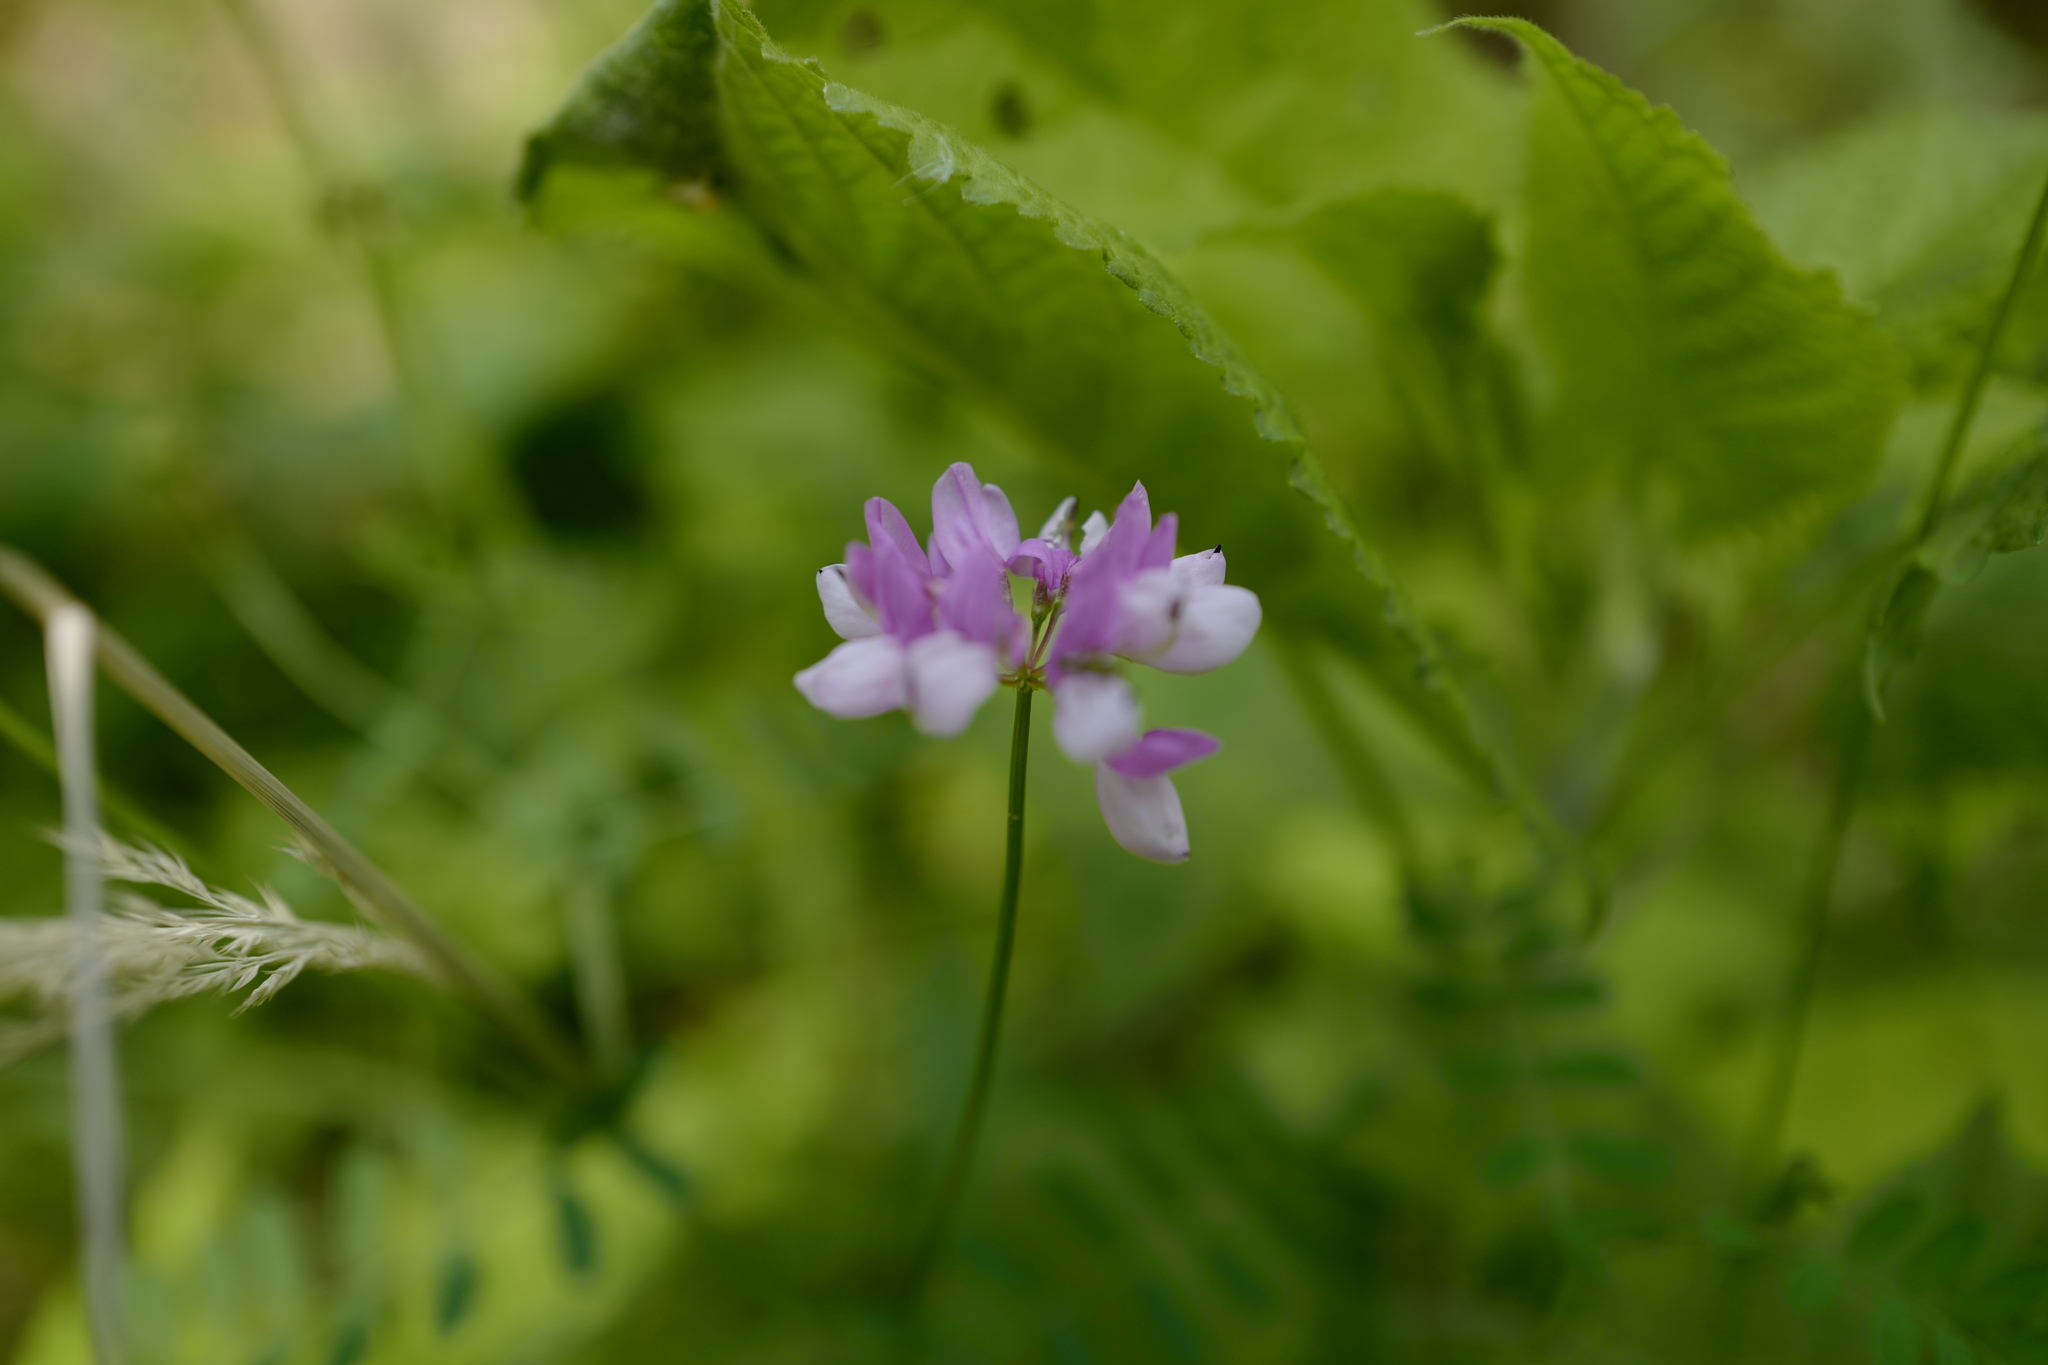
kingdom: Plantae
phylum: Tracheophyta
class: Magnoliopsida
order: Fabales
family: Fabaceae
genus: Coronilla
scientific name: Coronilla varia
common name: Crownvetch
